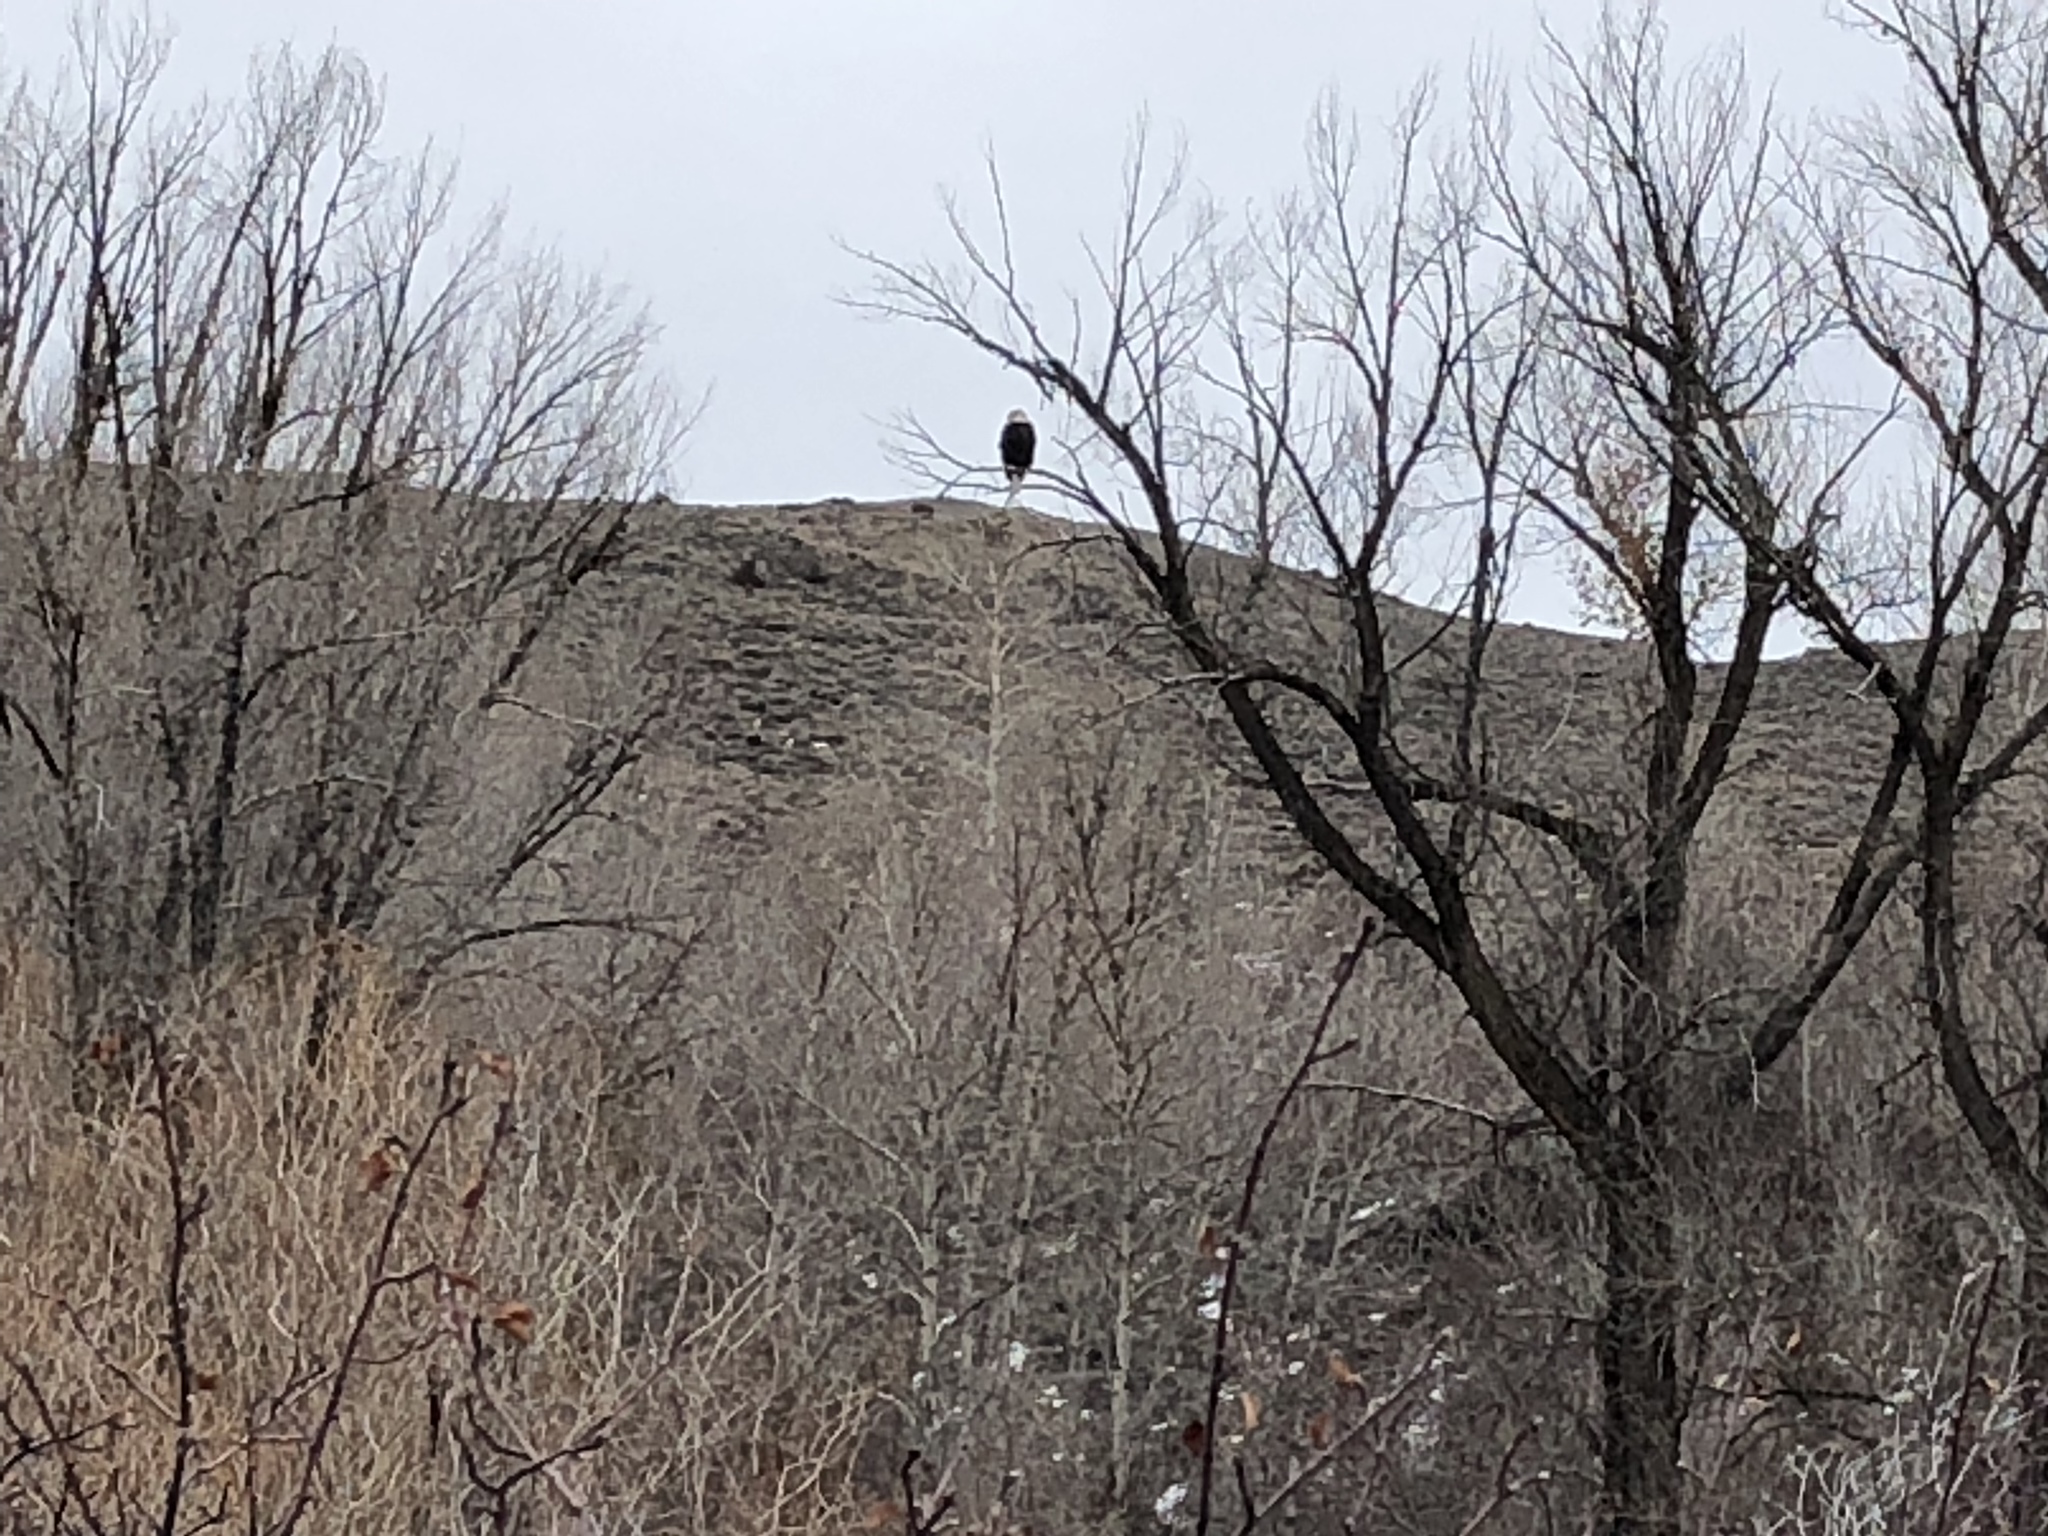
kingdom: Animalia
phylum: Chordata
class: Aves
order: Accipitriformes
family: Accipitridae
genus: Haliaeetus
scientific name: Haliaeetus leucocephalus
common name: Bald eagle
